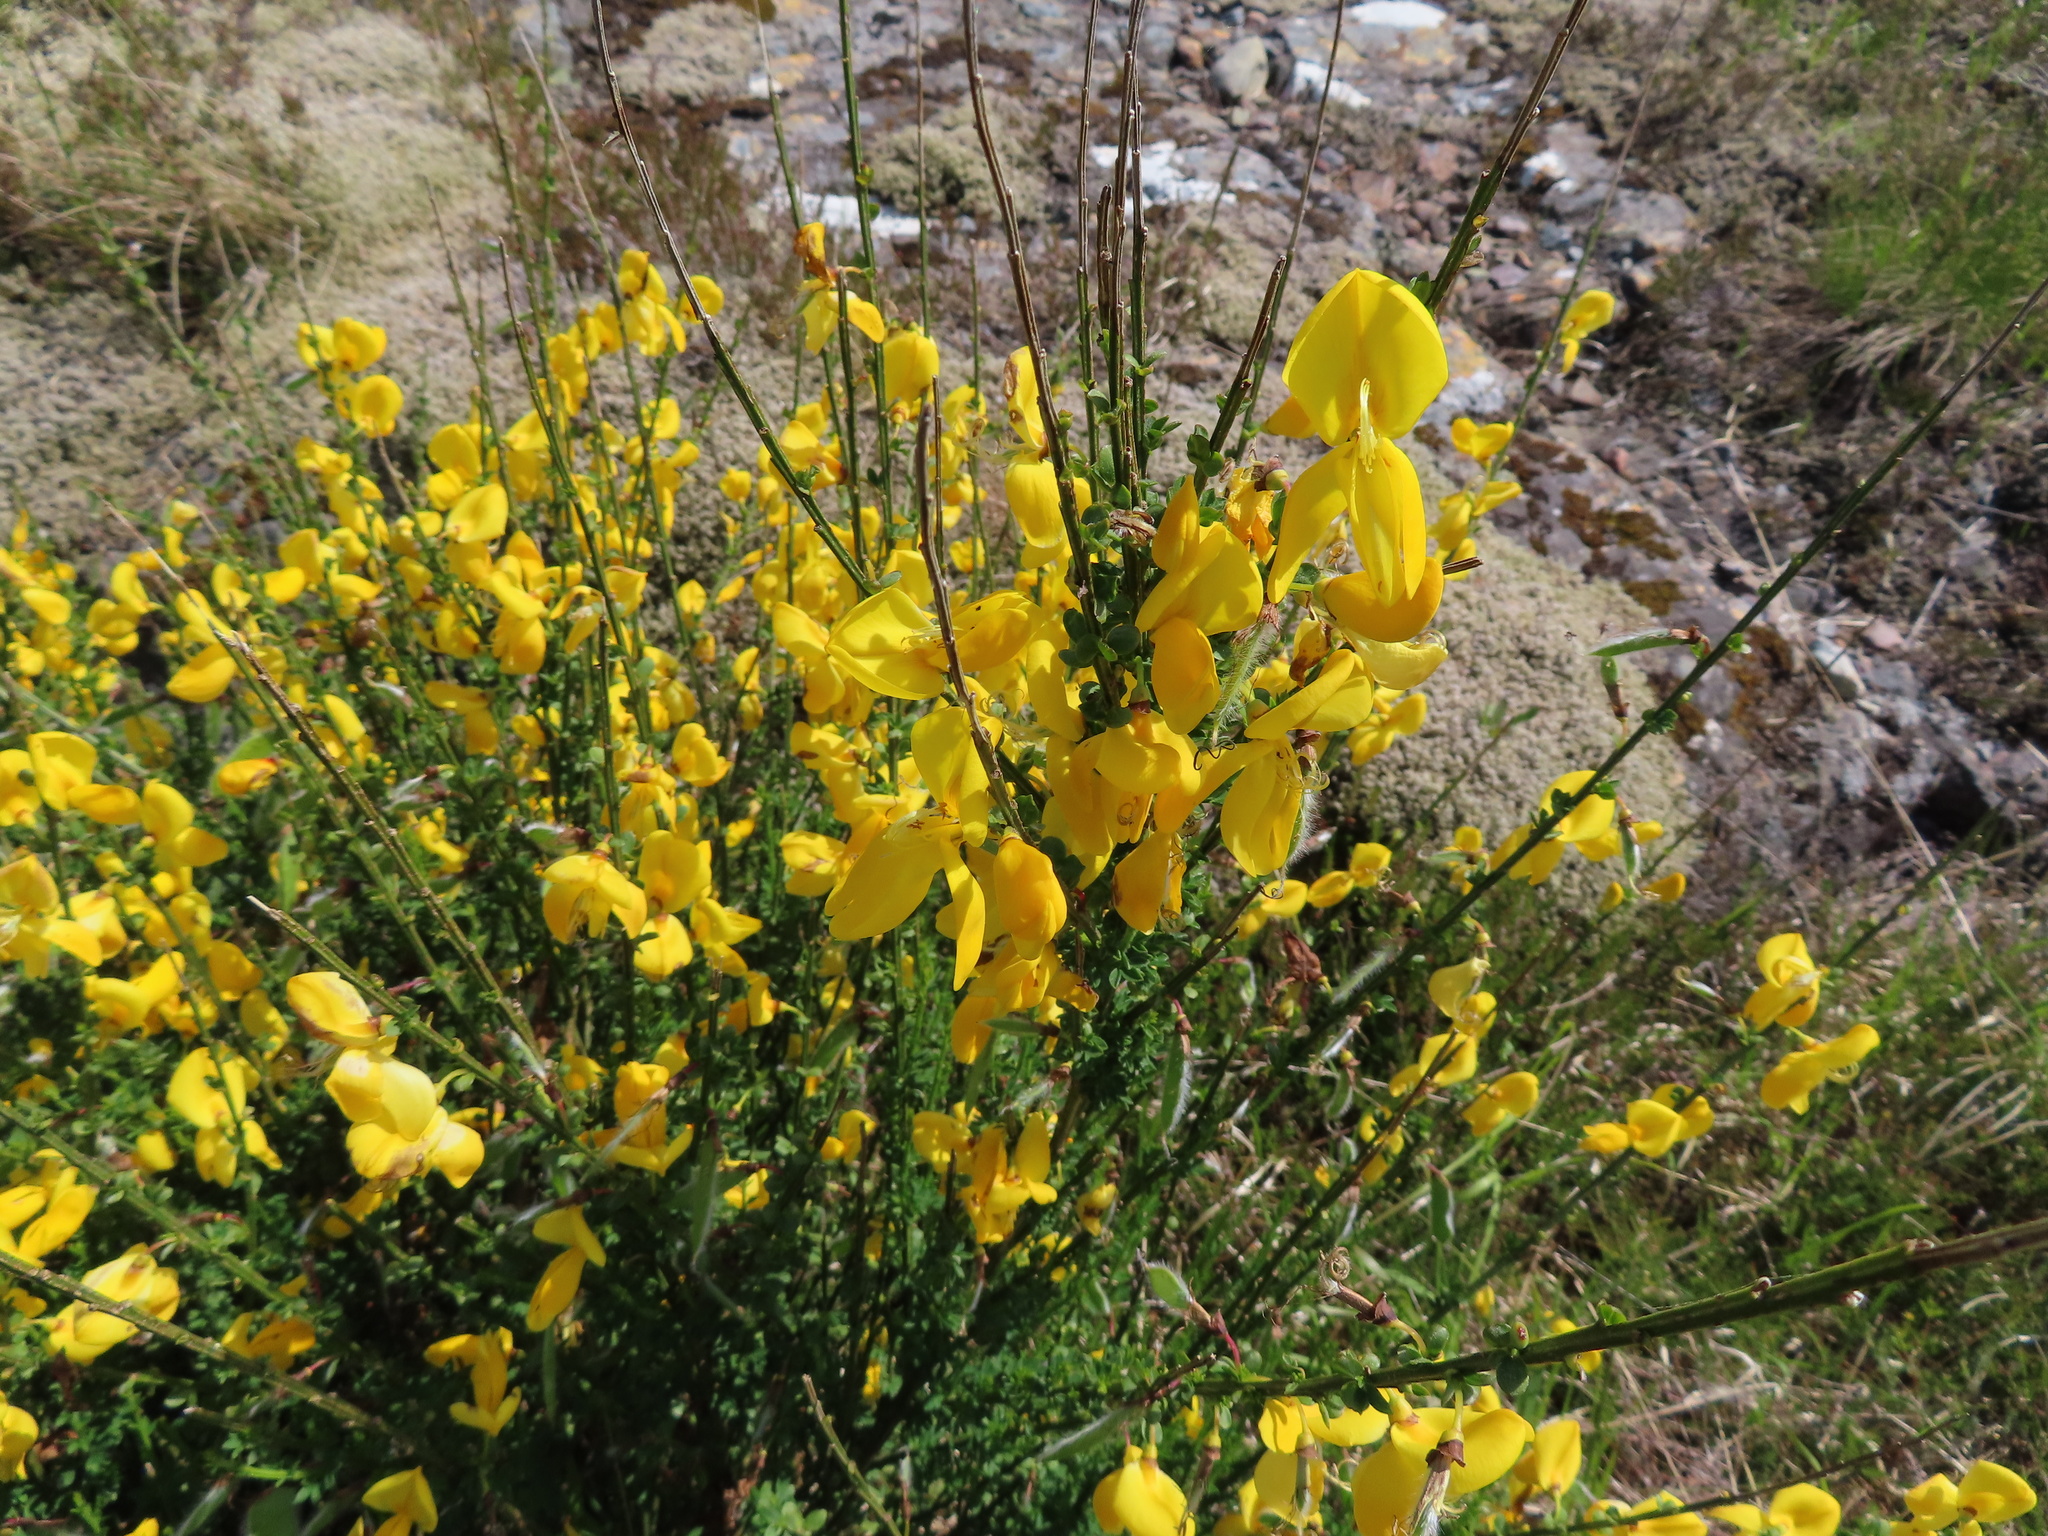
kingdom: Plantae
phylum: Tracheophyta
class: Magnoliopsida
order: Fabales
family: Fabaceae
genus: Cytisus
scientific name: Cytisus scoparius
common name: Scotch broom
